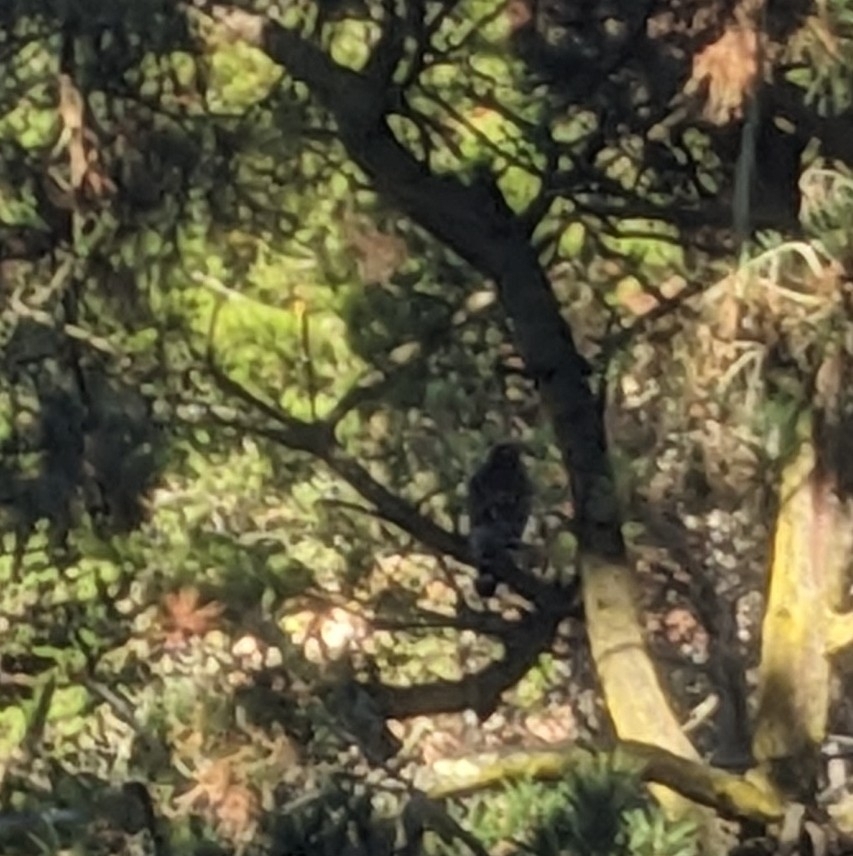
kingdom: Animalia
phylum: Chordata
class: Aves
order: Accipitriformes
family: Accipitridae
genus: Buteo
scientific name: Buteo lineatus
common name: Red-shouldered hawk
